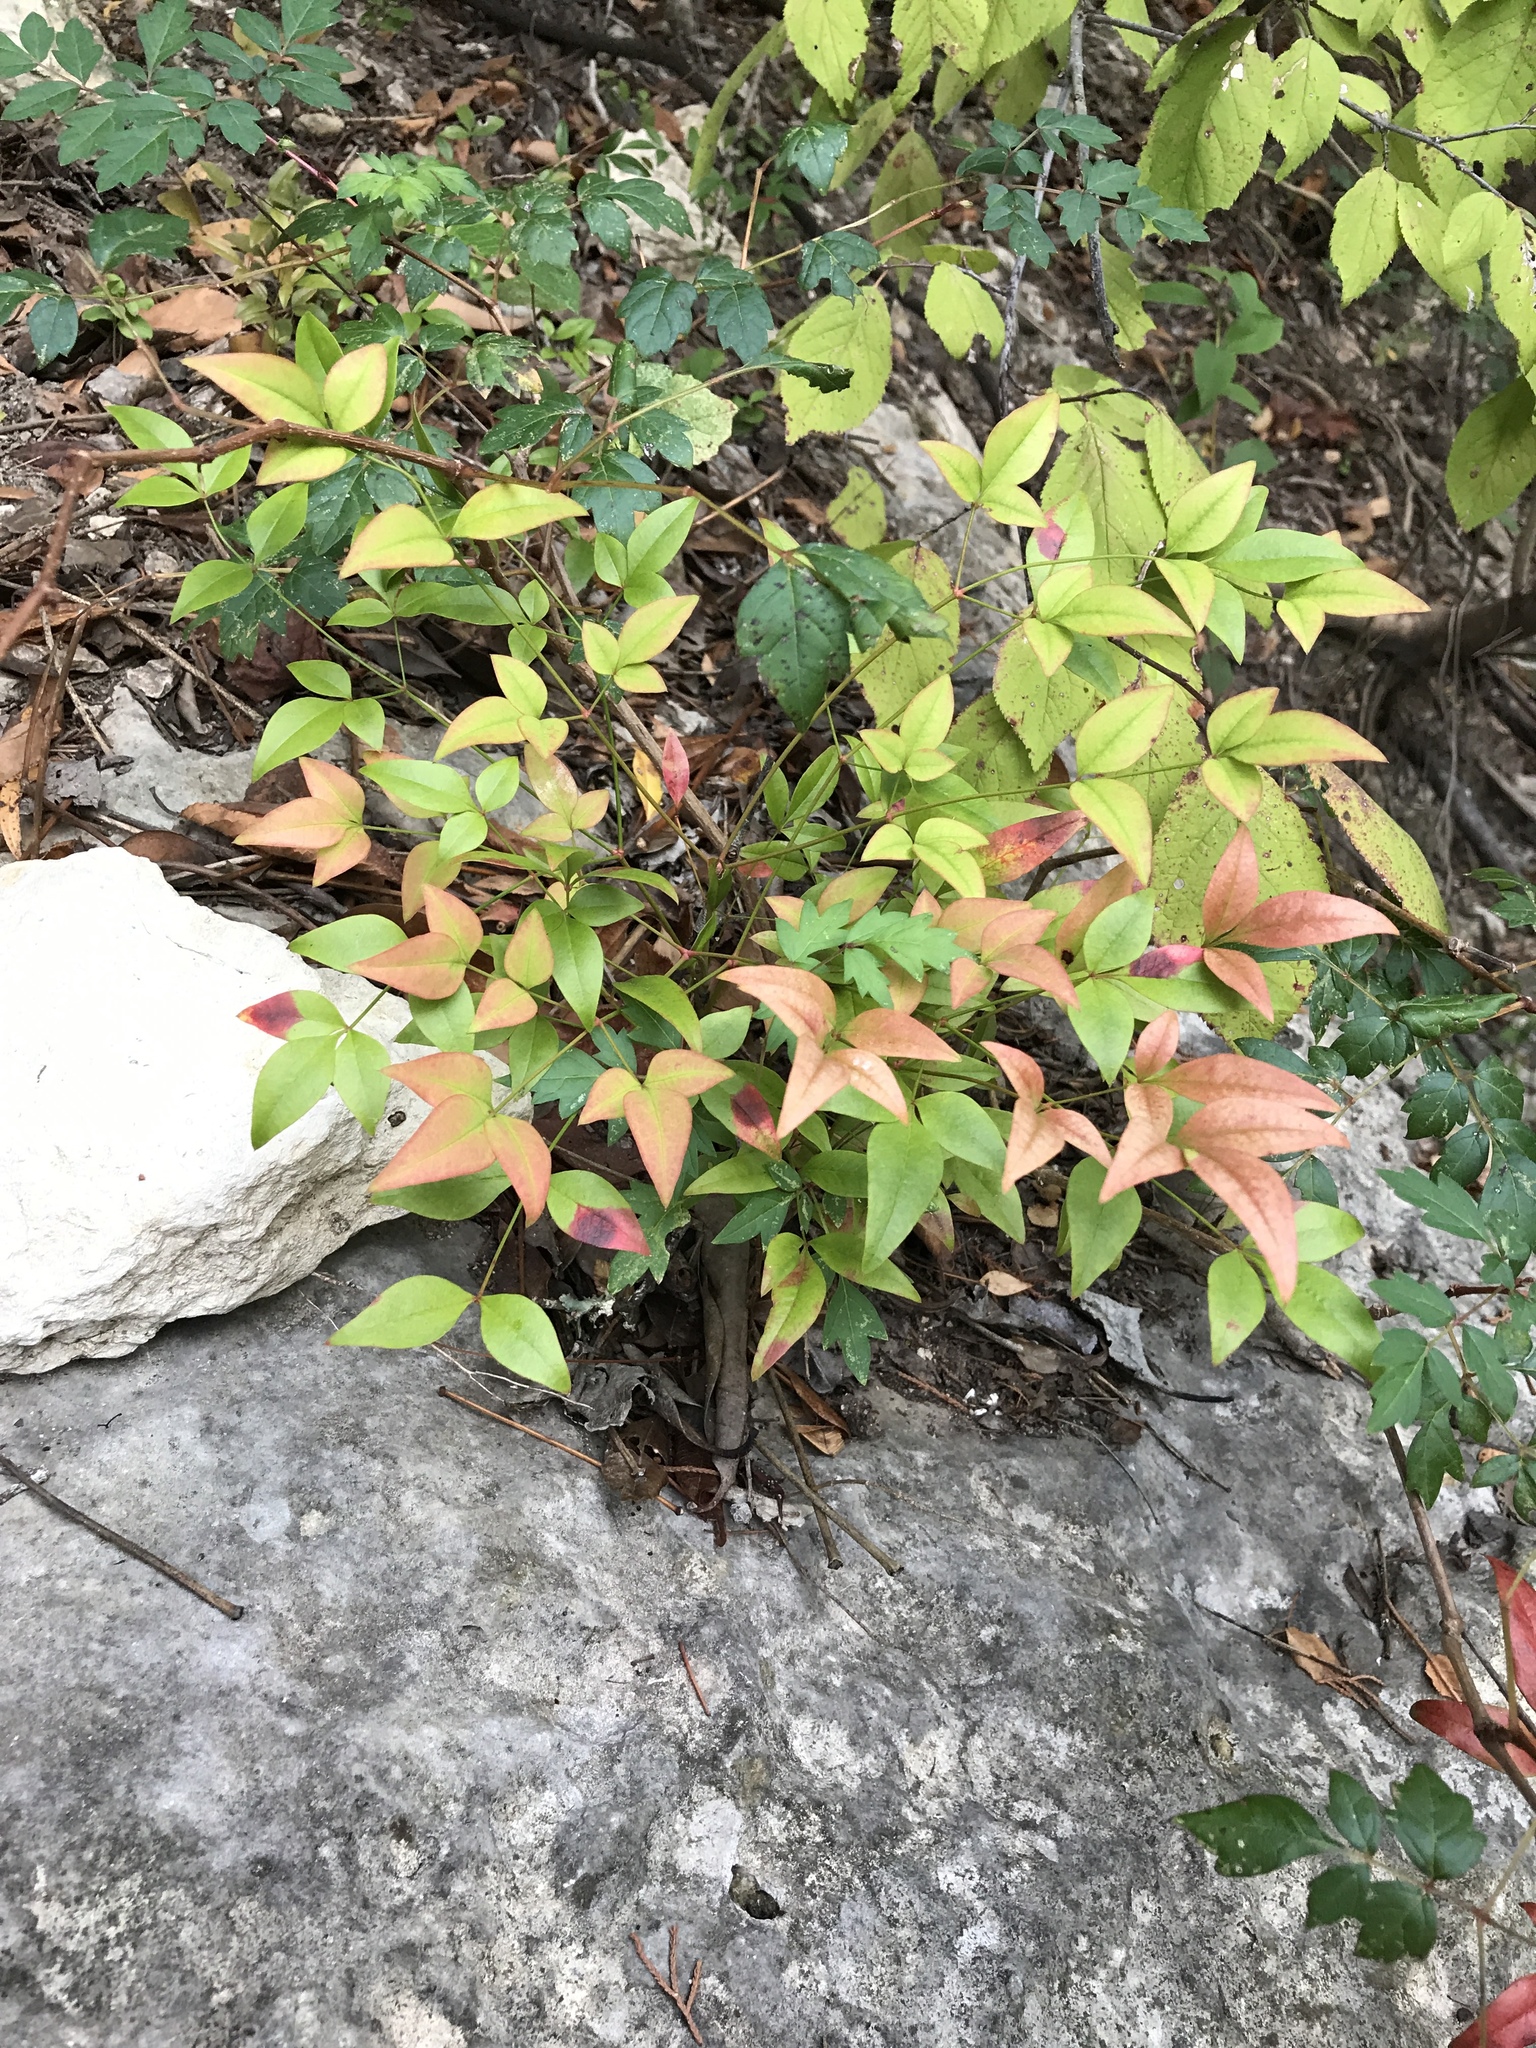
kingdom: Plantae
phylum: Tracheophyta
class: Magnoliopsida
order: Ranunculales
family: Berberidaceae
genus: Nandina
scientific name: Nandina domestica
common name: Sacred bamboo
